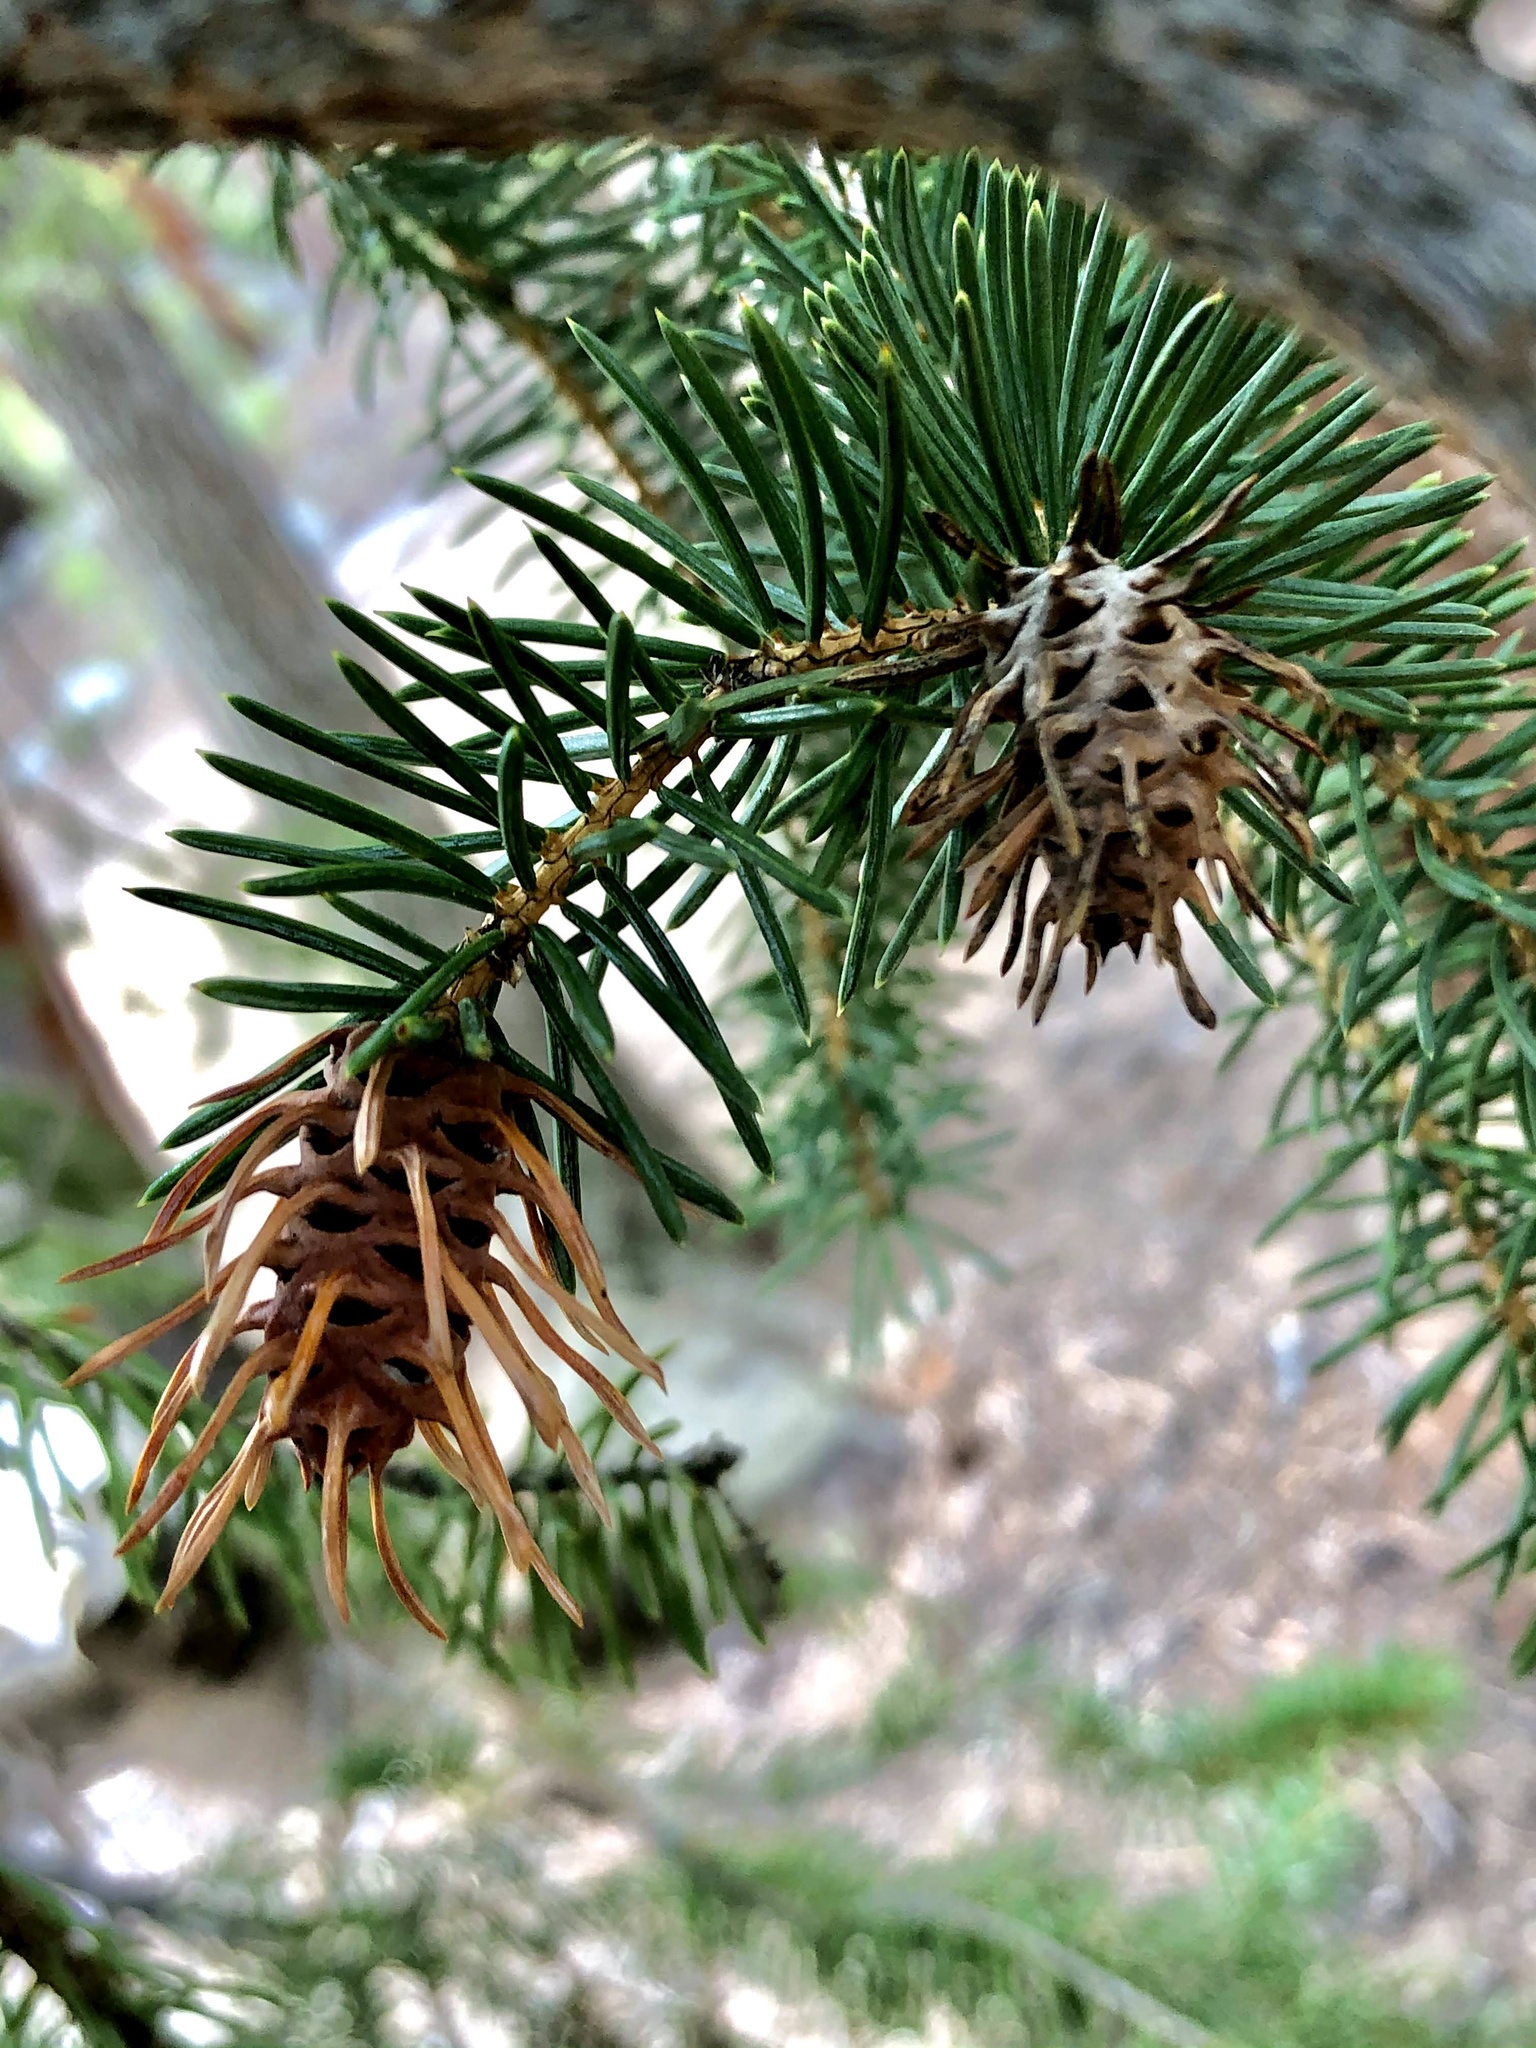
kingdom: Animalia
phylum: Arthropoda
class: Insecta
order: Hemiptera
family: Adelgidae
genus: Adelges
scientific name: Adelges cooleyi
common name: Cooley spruce gall adelgid
